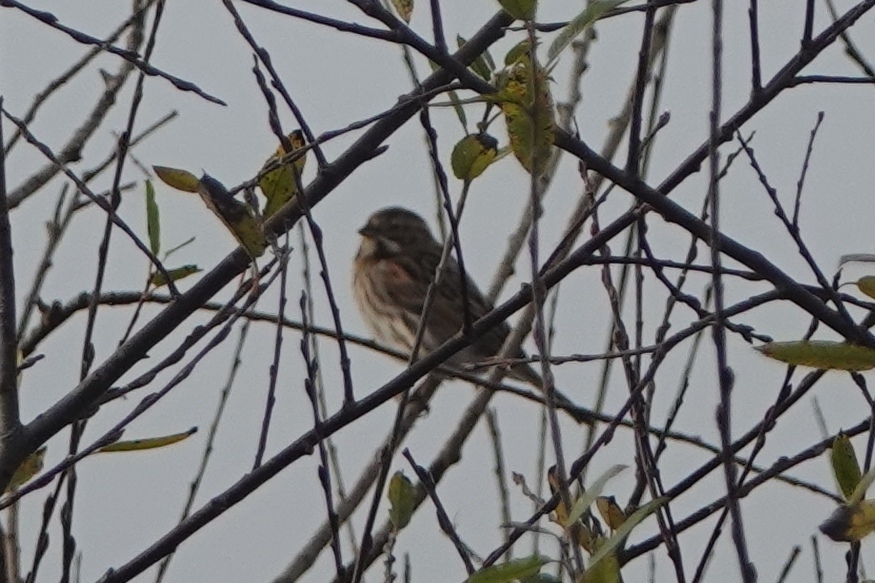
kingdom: Animalia
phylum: Chordata
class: Aves
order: Passeriformes
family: Emberizidae
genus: Emberiza
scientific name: Emberiza schoeniclus
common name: Reed bunting
